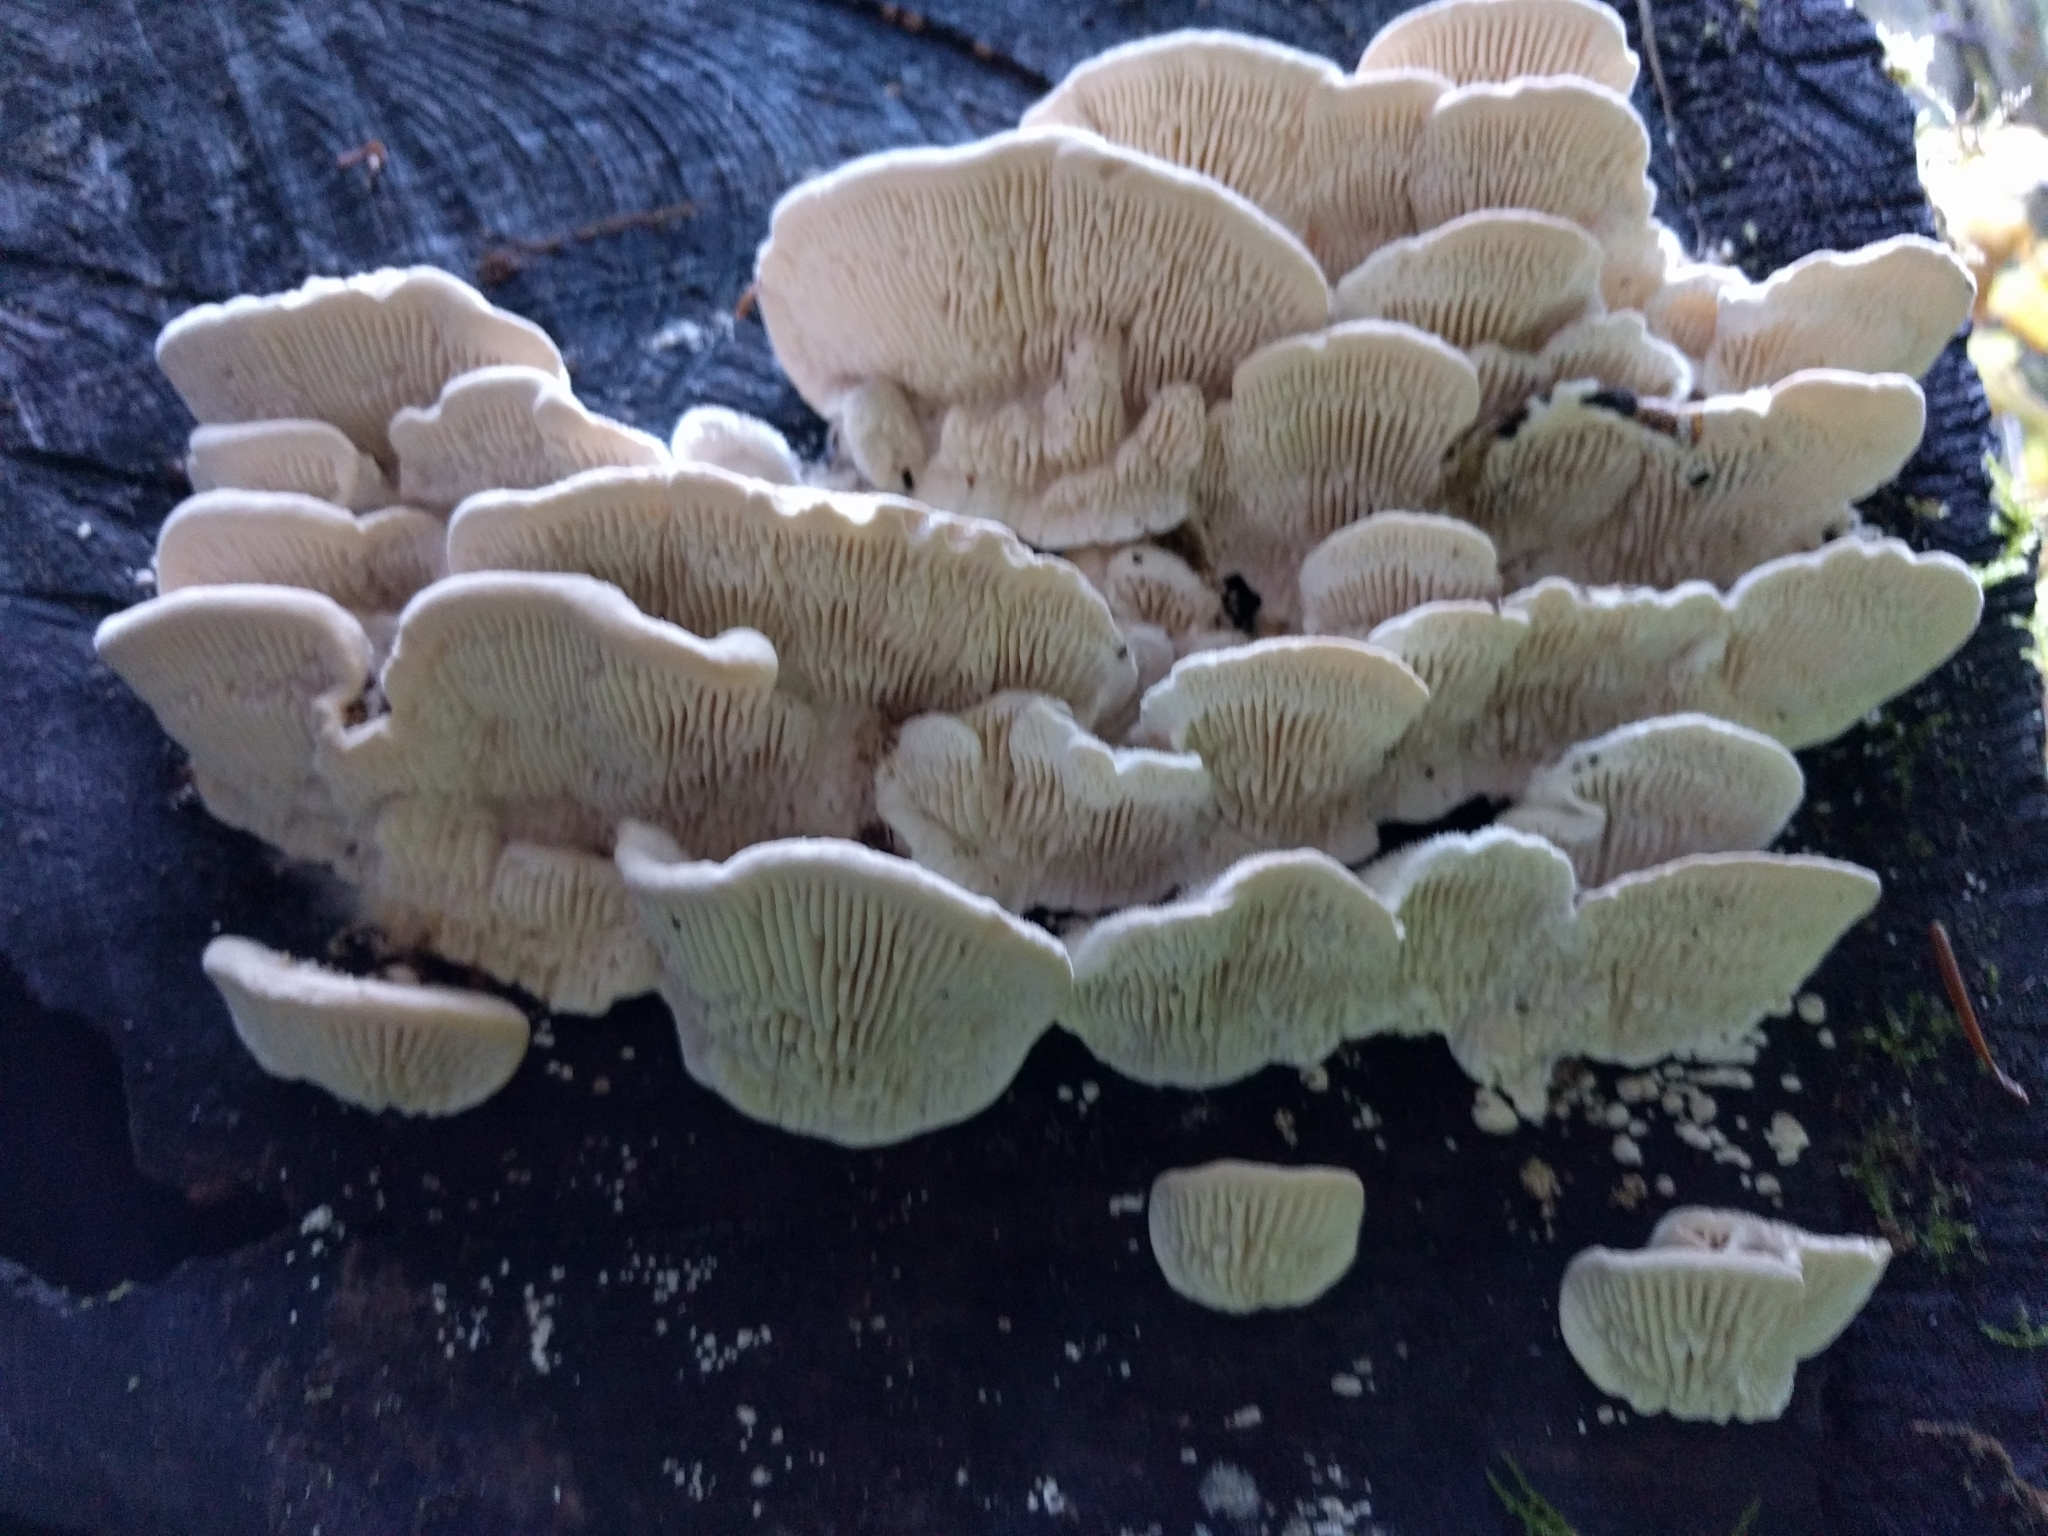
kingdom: Fungi
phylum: Basidiomycota
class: Agaricomycetes
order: Polyporales
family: Polyporaceae
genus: Lenzites
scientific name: Lenzites betulinus
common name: Birch mazegill
